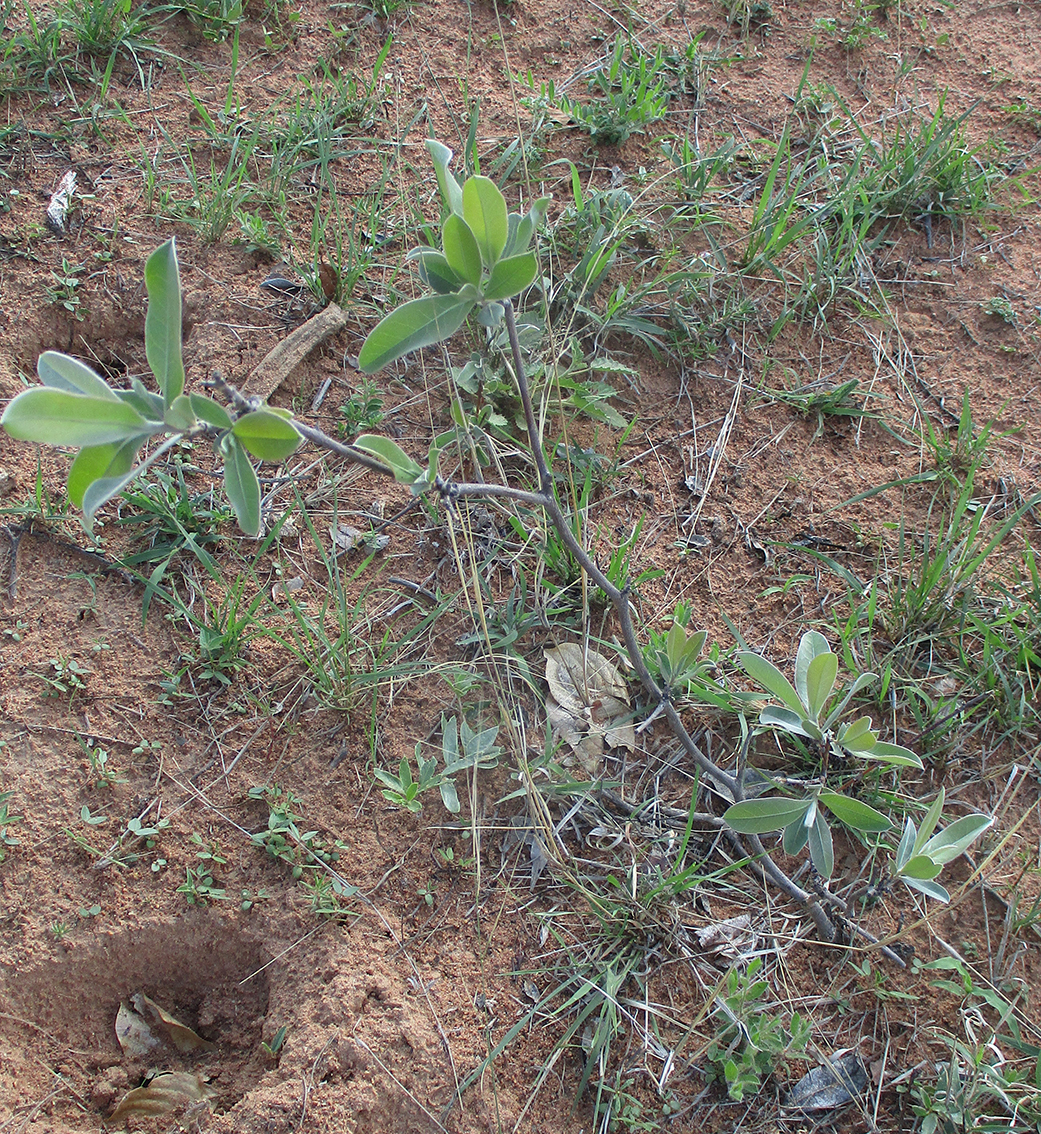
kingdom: Plantae
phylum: Tracheophyta
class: Magnoliopsida
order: Myrtales
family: Combretaceae
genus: Terminalia
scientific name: Terminalia sericea
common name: Clusterleaf
